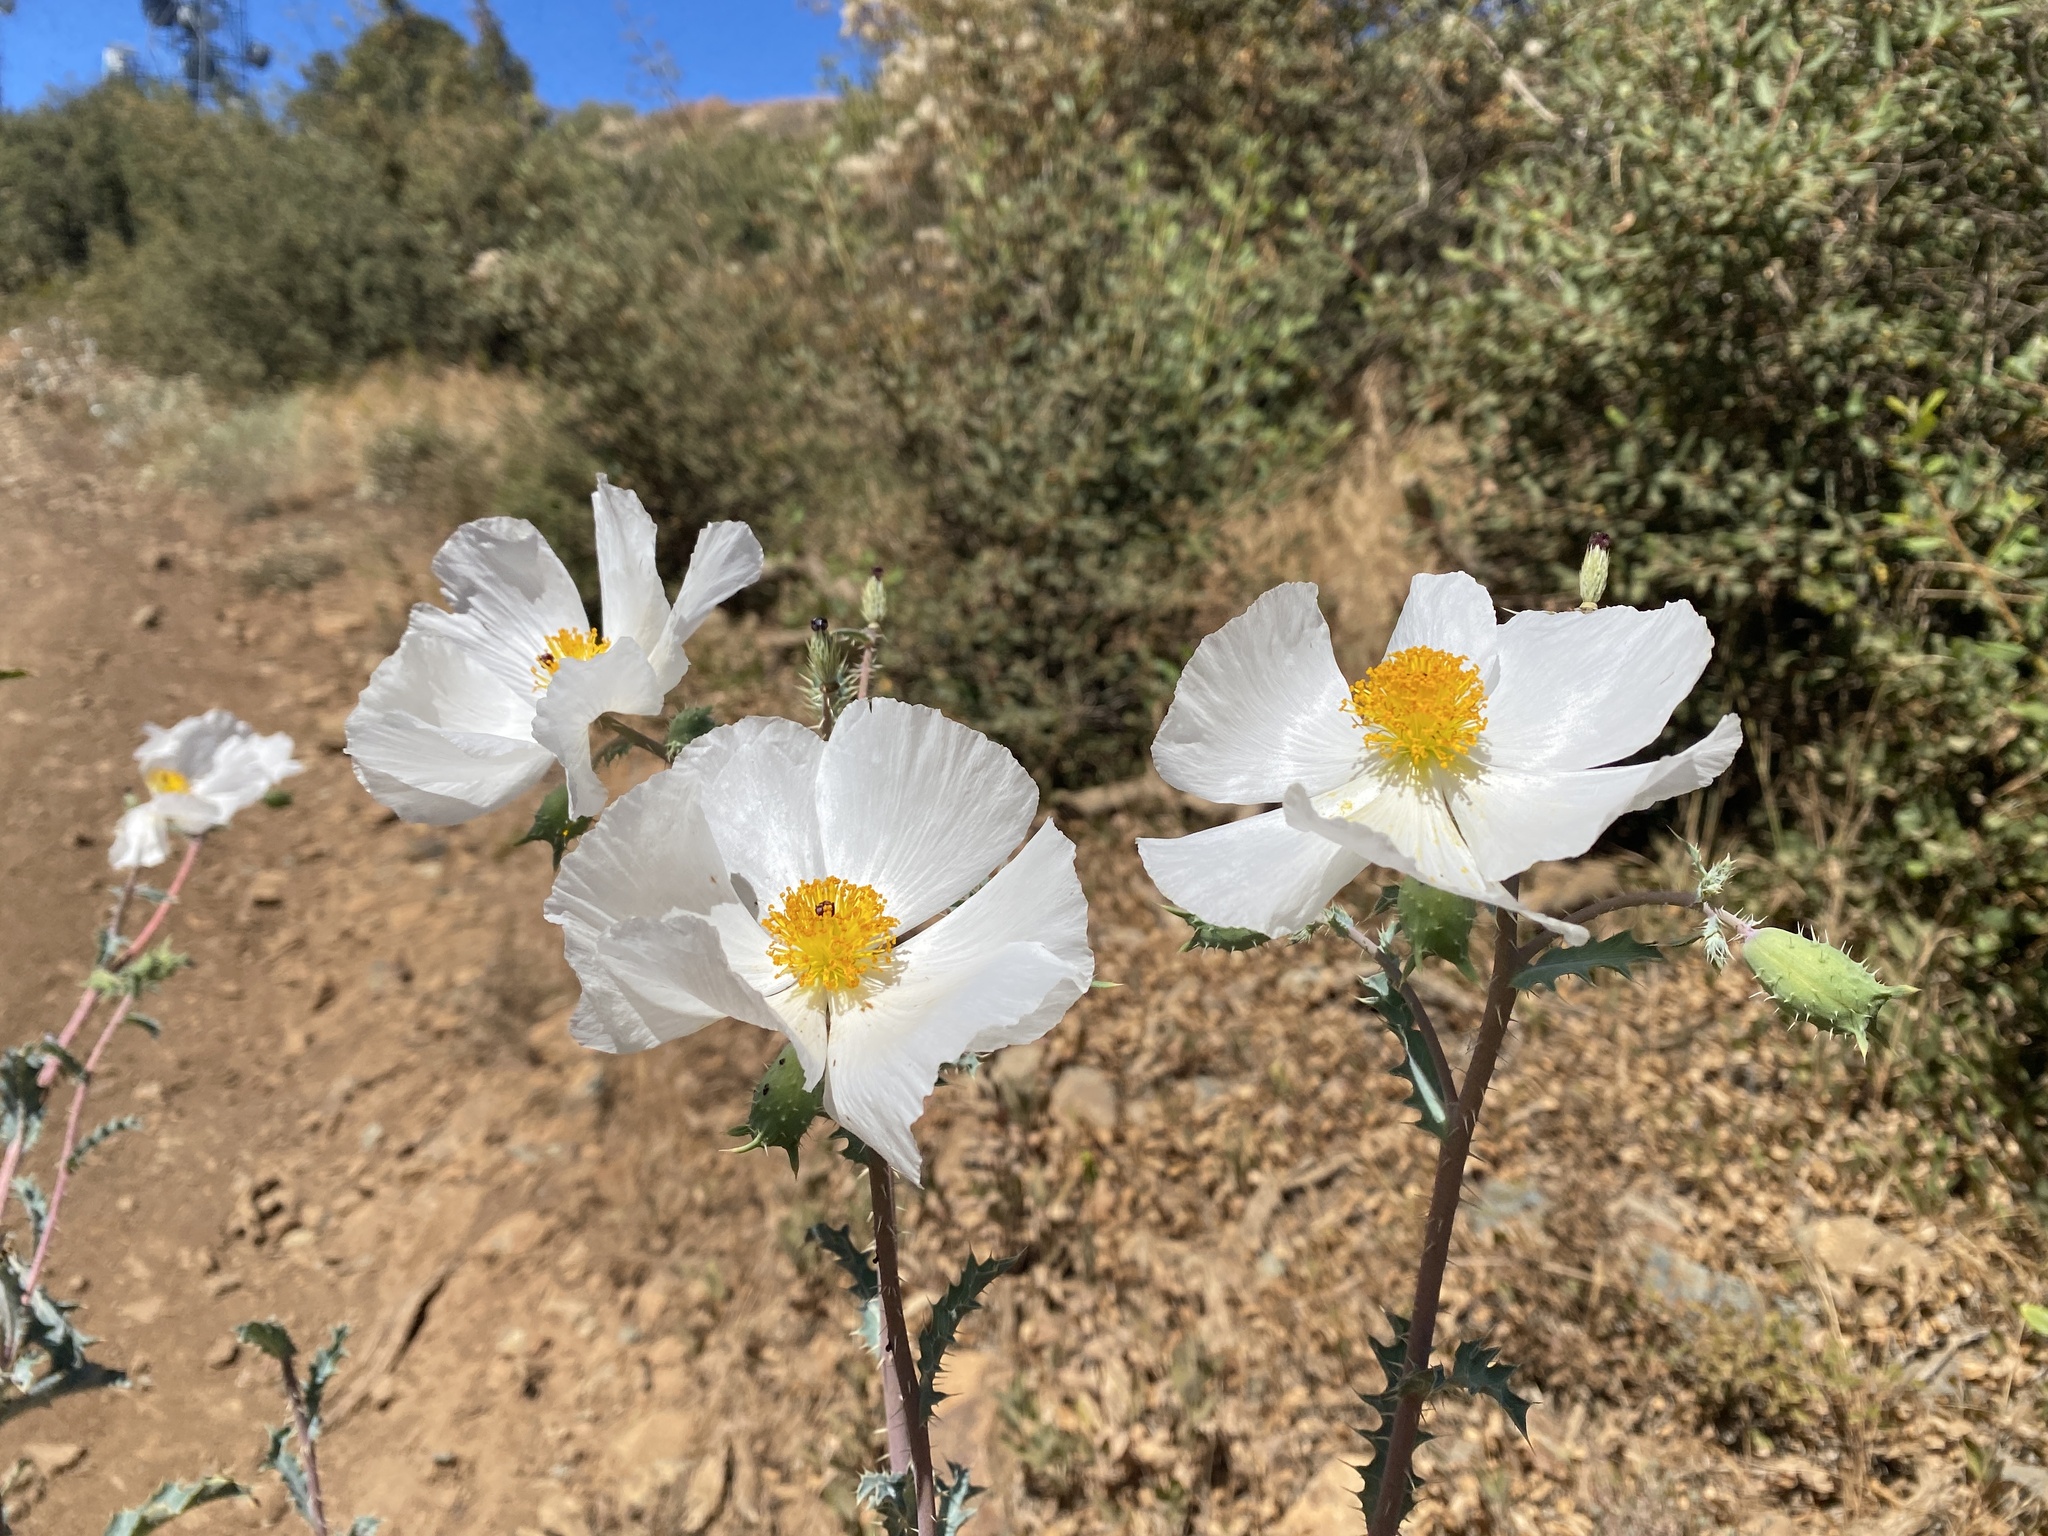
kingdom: Plantae
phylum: Tracheophyta
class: Magnoliopsida
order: Ranunculales
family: Papaveraceae
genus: Argemone
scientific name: Argemone munita
